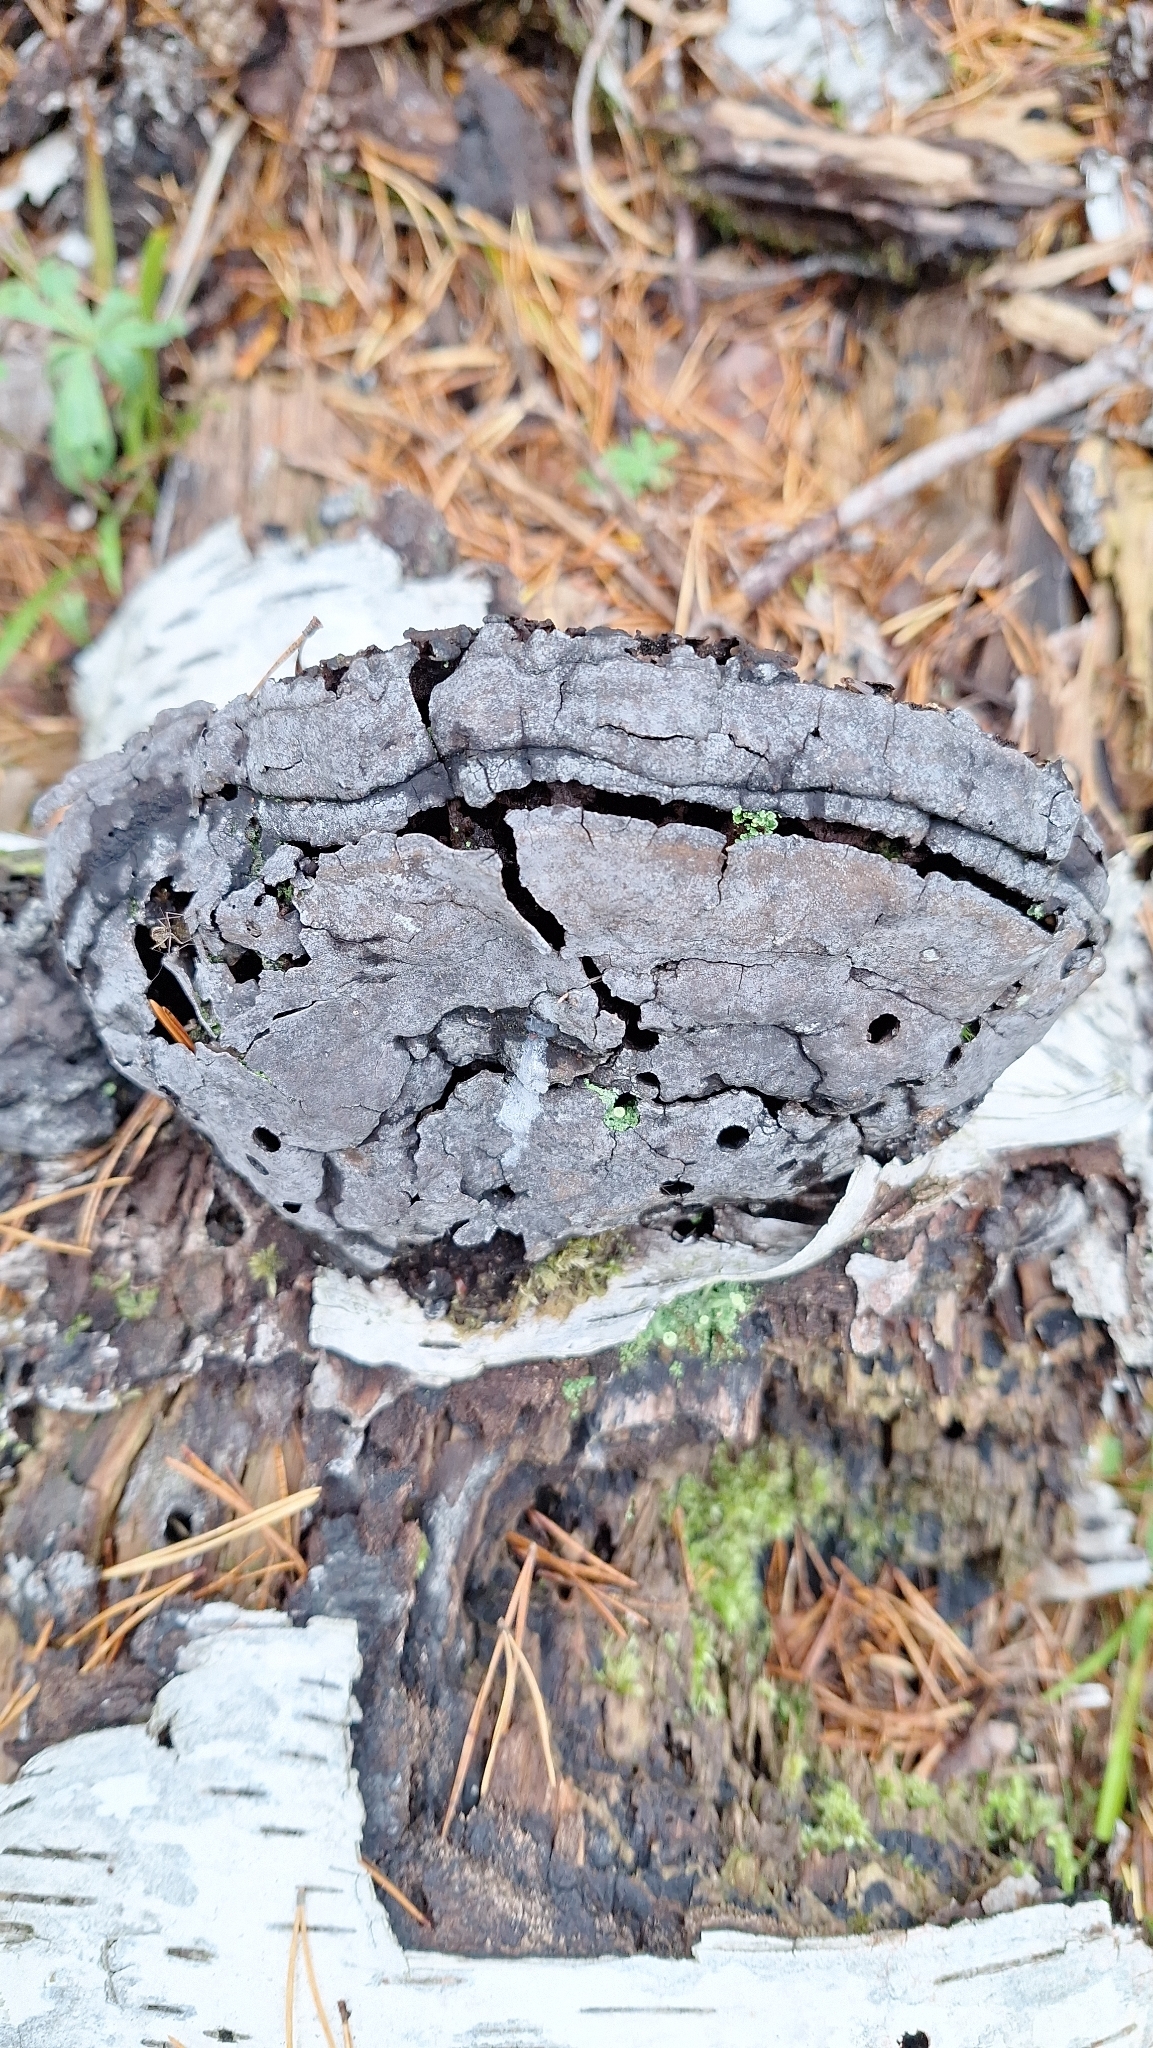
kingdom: Fungi
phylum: Basidiomycota
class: Agaricomycetes
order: Polyporales
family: Polyporaceae
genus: Fomes
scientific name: Fomes fomentarius
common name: Hoof fungus
